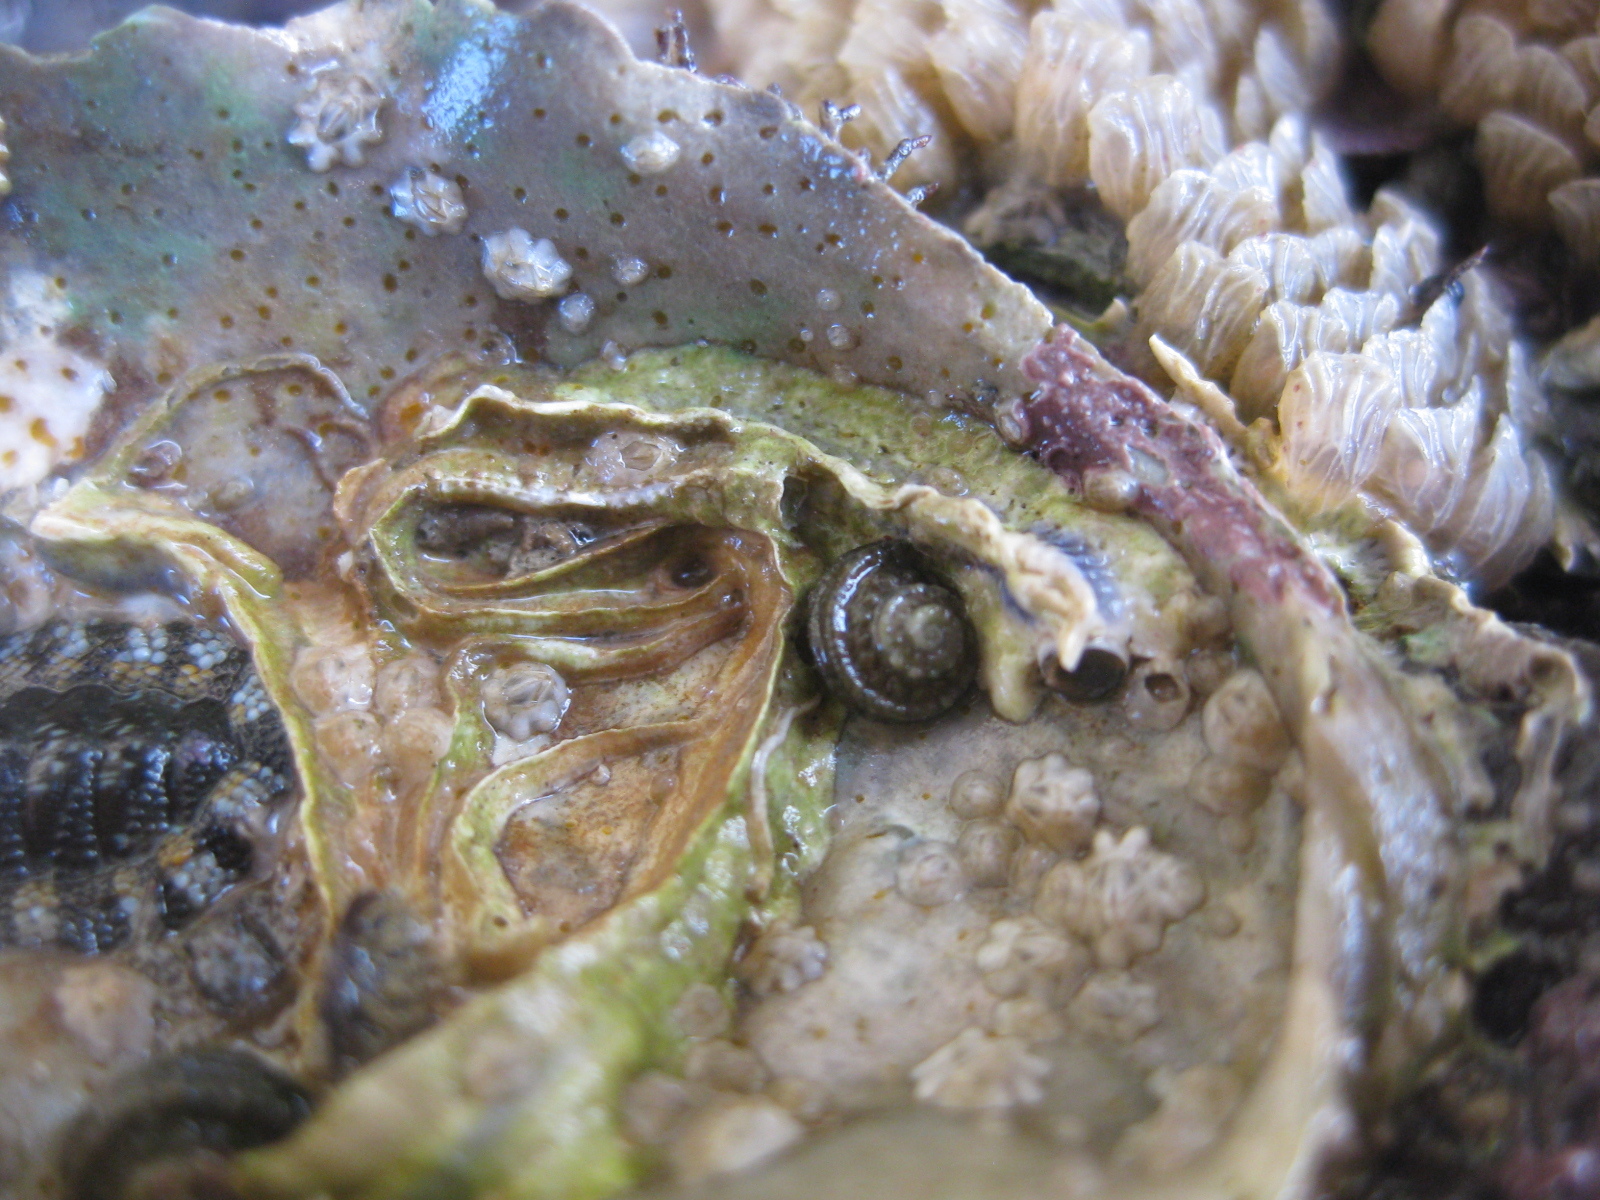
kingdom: Animalia
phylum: Mollusca
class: Gastropoda
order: Trochida
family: Turbinidae
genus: Lunella
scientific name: Lunella smaragda
